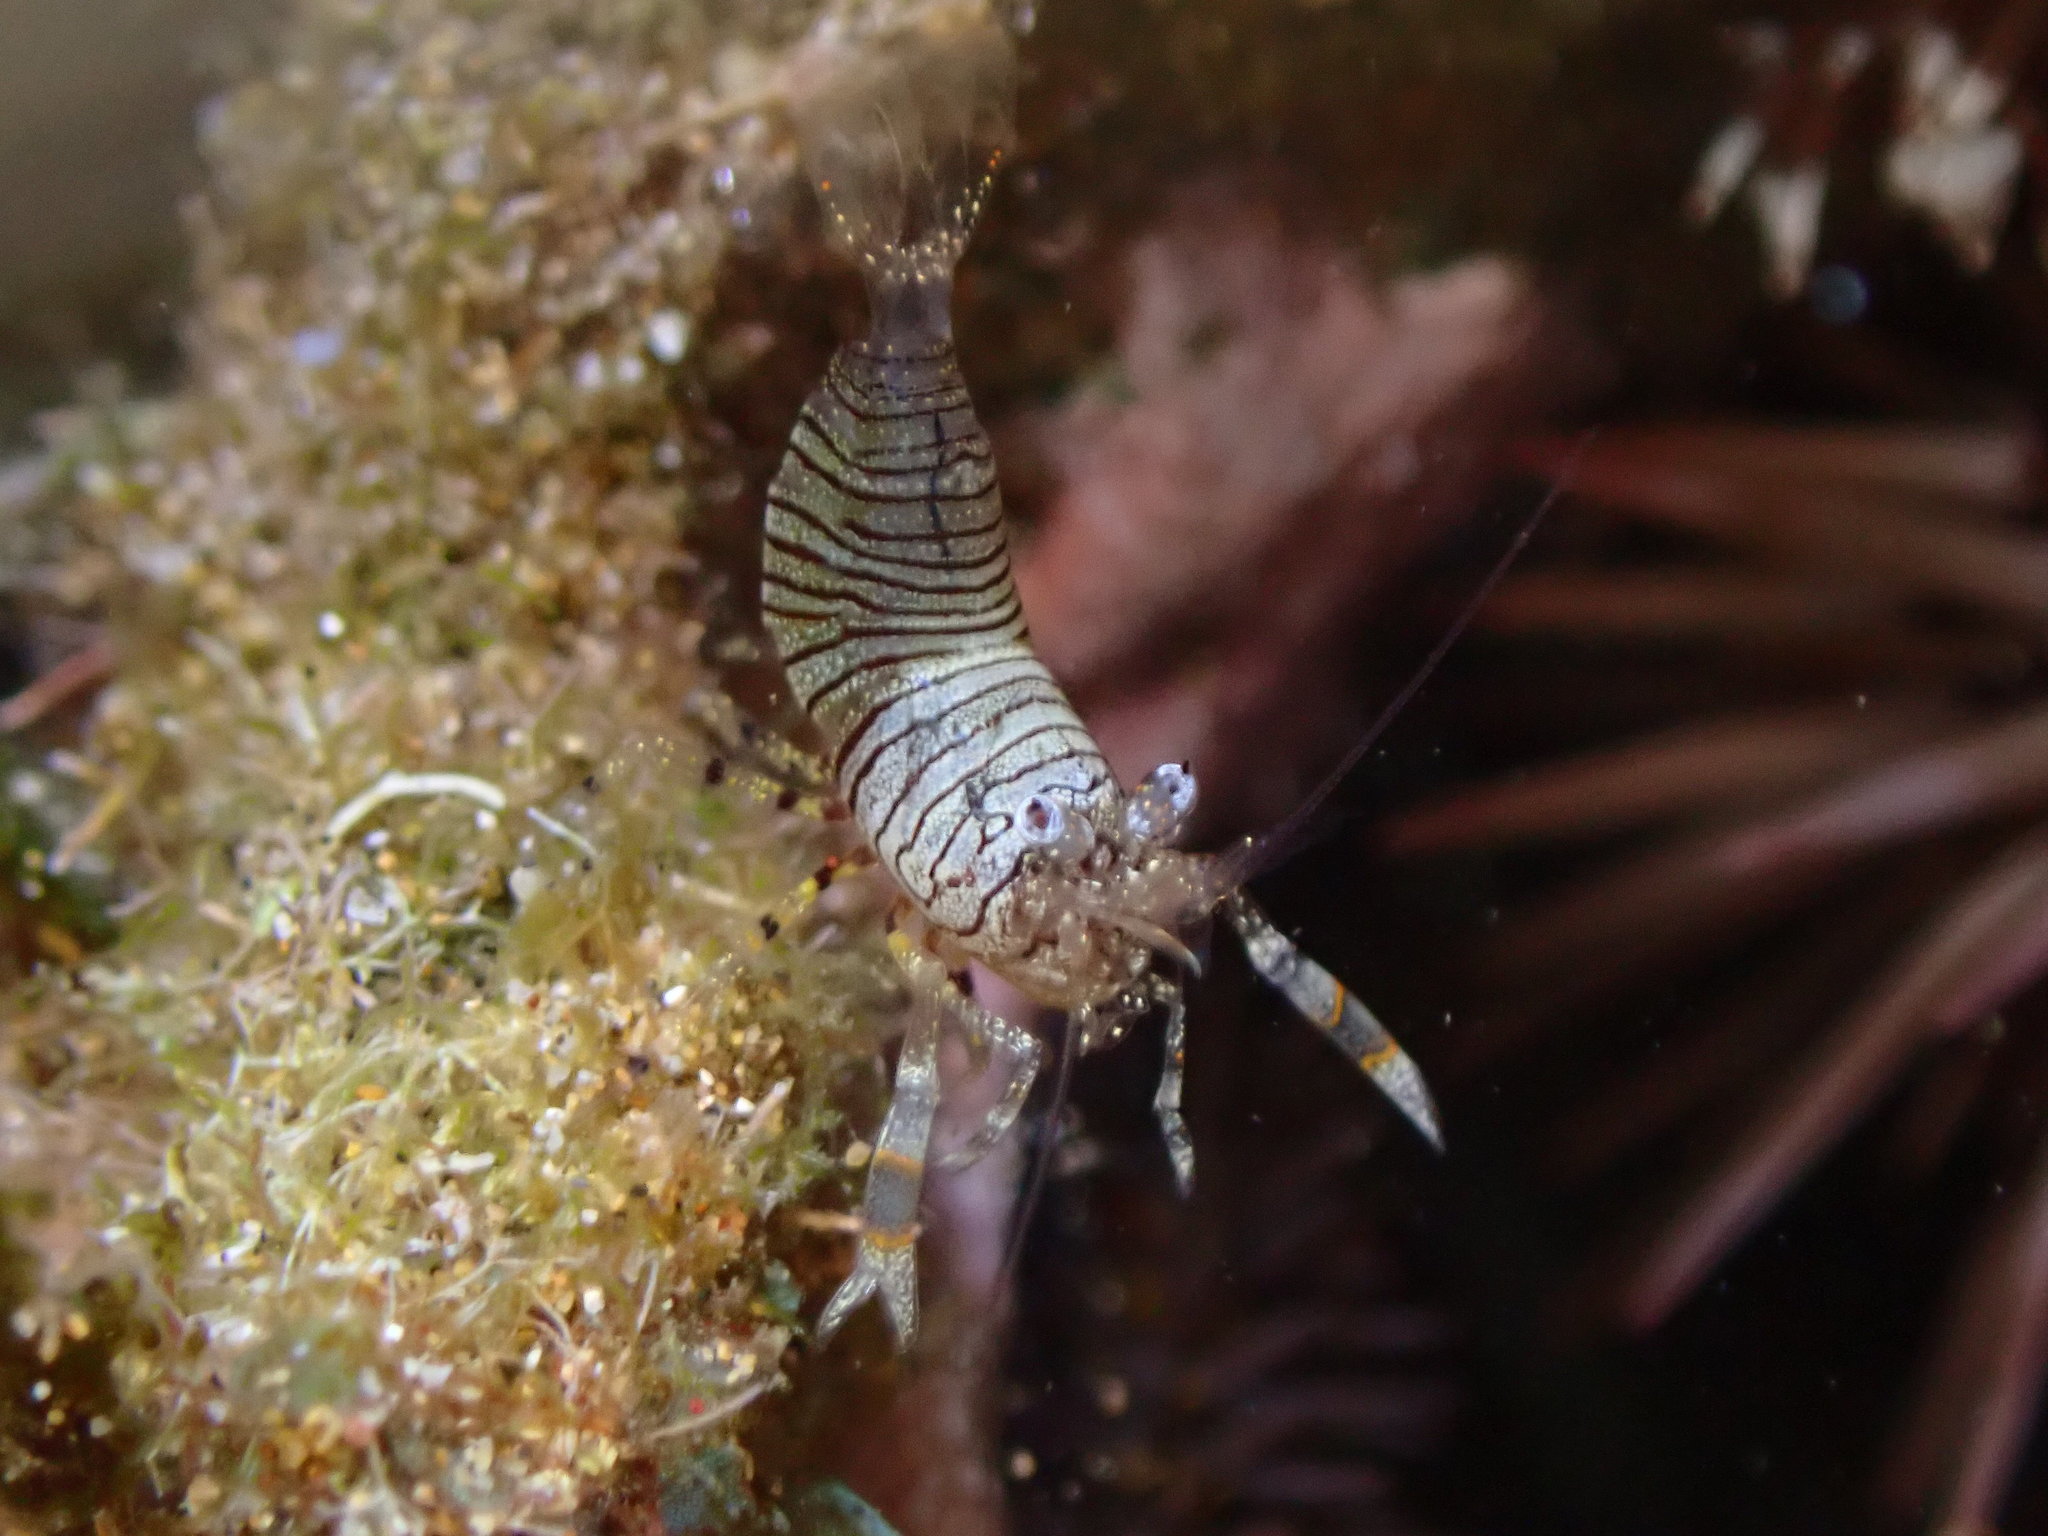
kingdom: Animalia
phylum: Arthropoda
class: Malacostraca
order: Decapoda
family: Palaemonidae
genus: Gnathophyllum
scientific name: Gnathophyllum americanum
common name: Bumblebee shrimp
